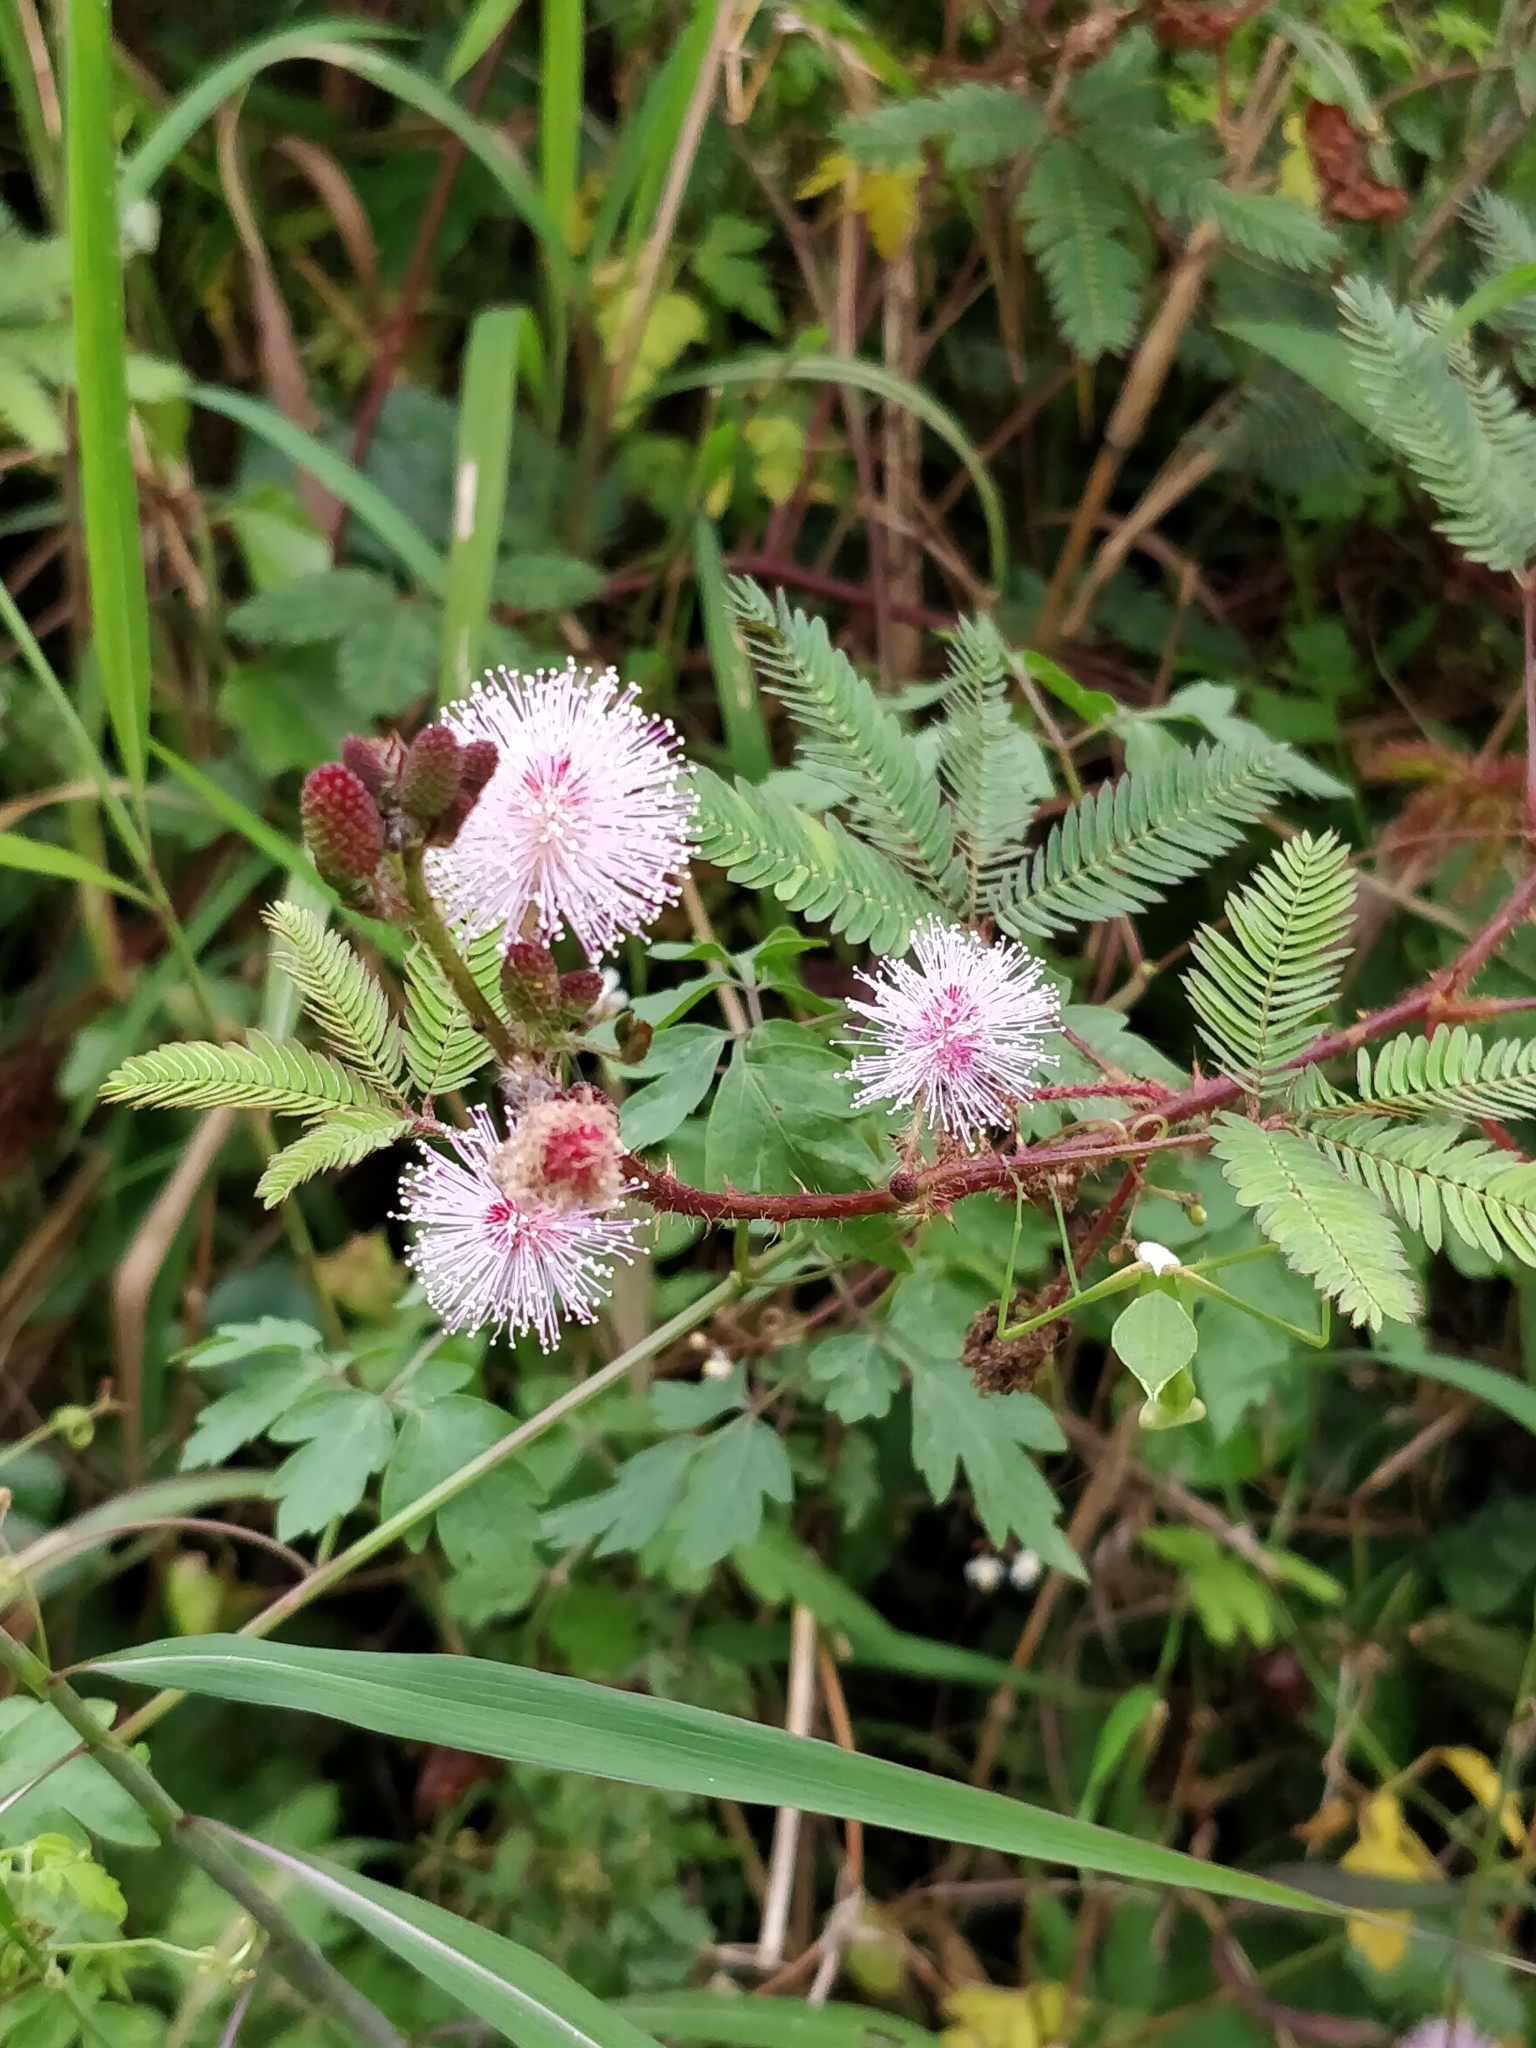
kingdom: Plantae
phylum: Tracheophyta
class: Magnoliopsida
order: Fabales
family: Fabaceae
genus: Mimosa
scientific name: Mimosa pudica
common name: Sensitive plant
